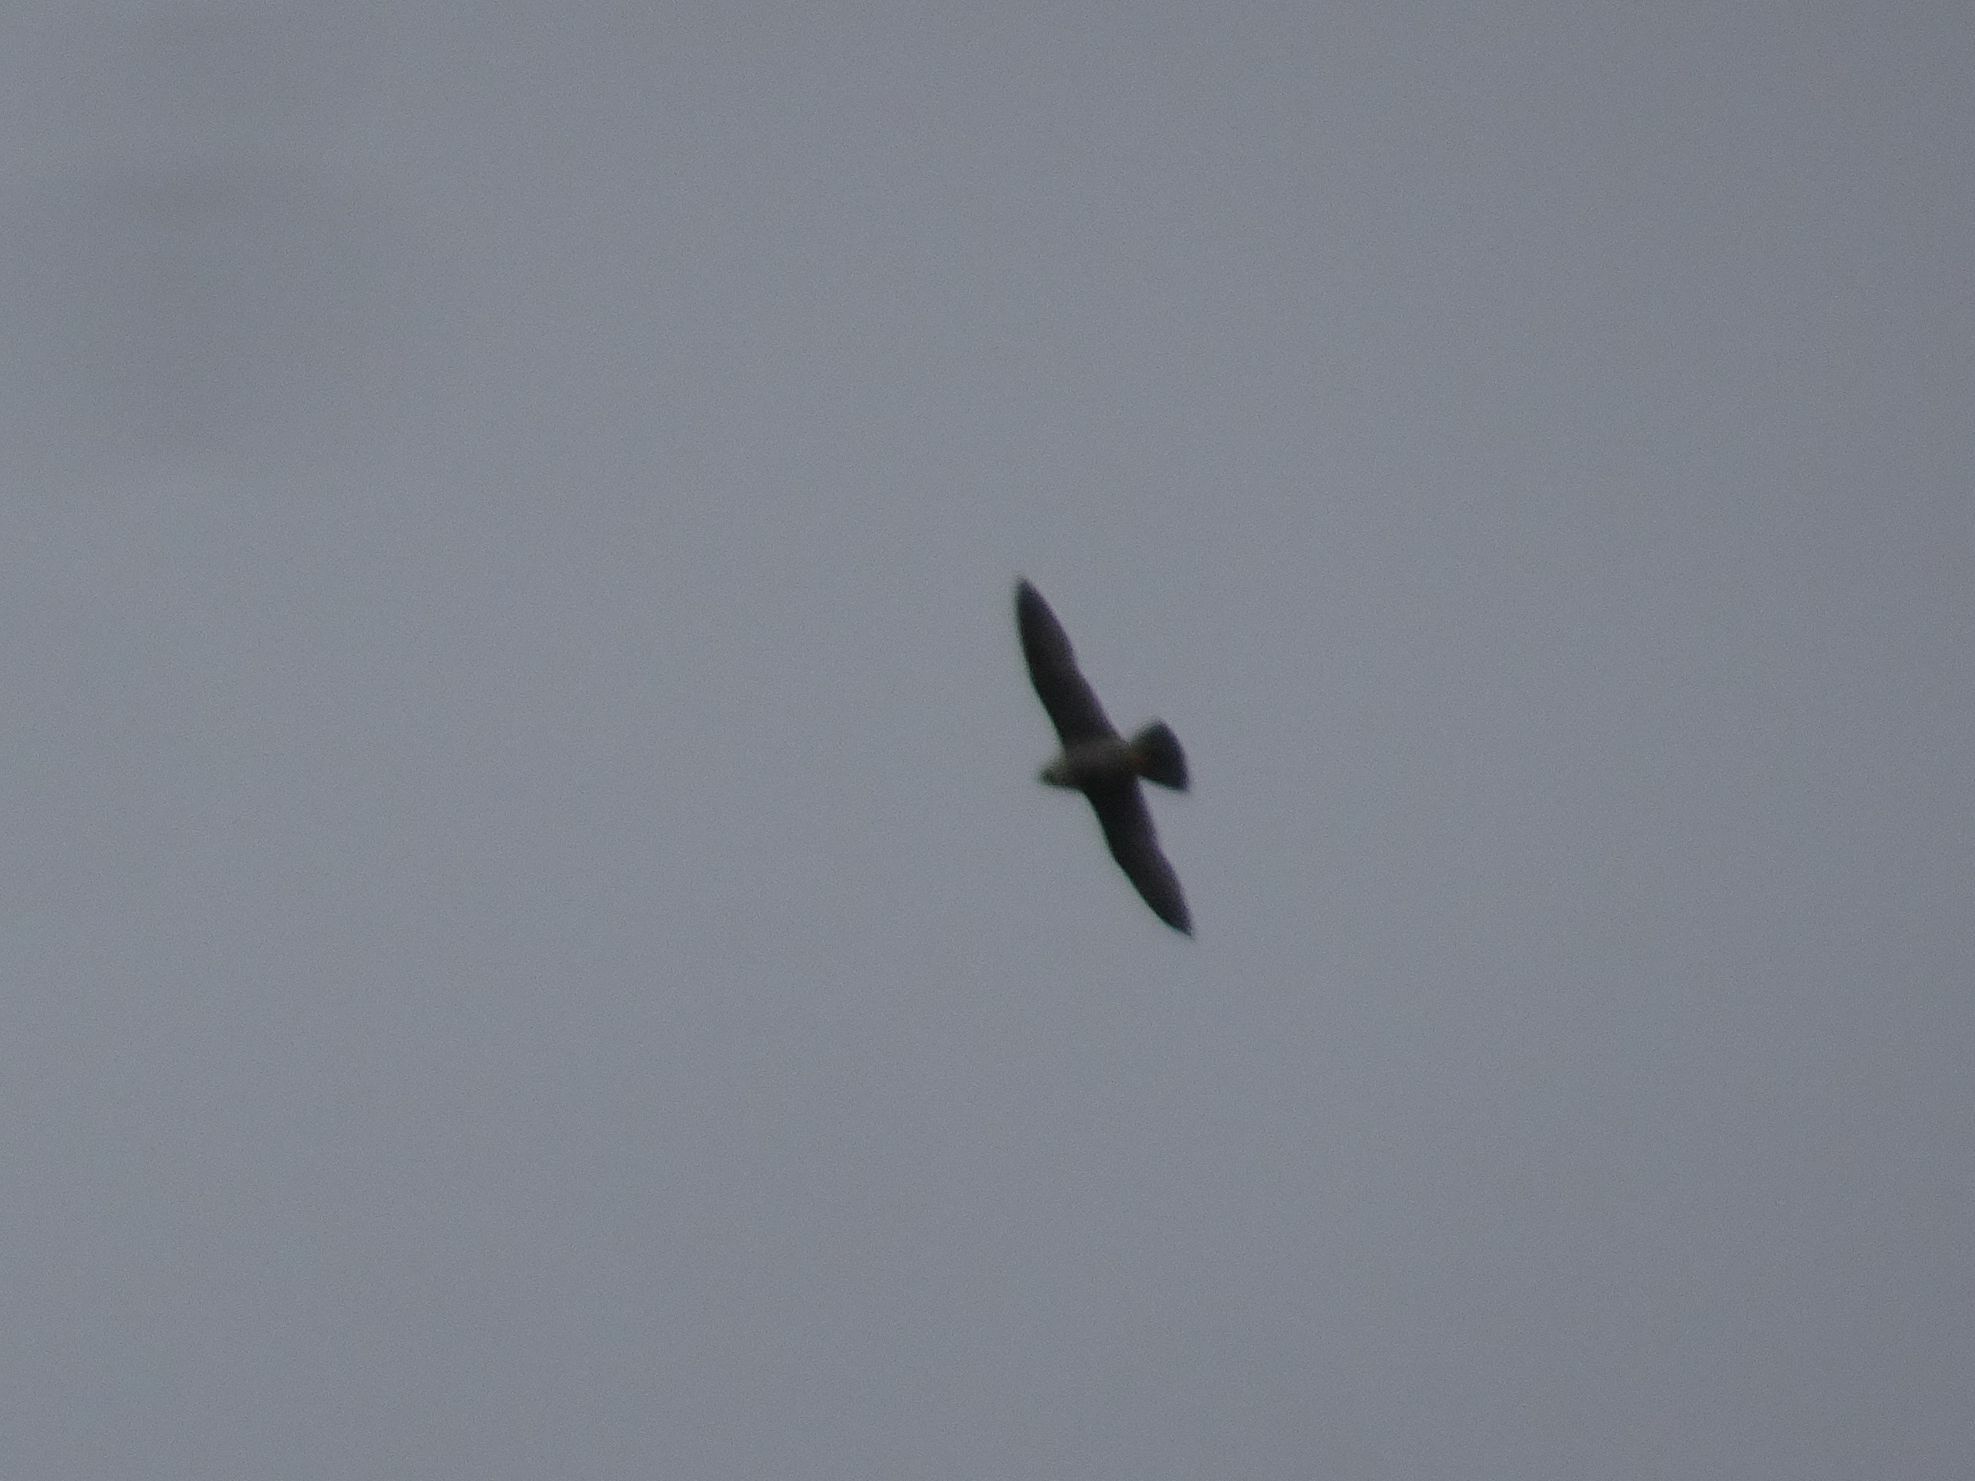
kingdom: Animalia
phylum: Chordata
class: Aves
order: Falconiformes
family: Falconidae
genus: Falco
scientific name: Falco peregrinus
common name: Peregrine falcon
